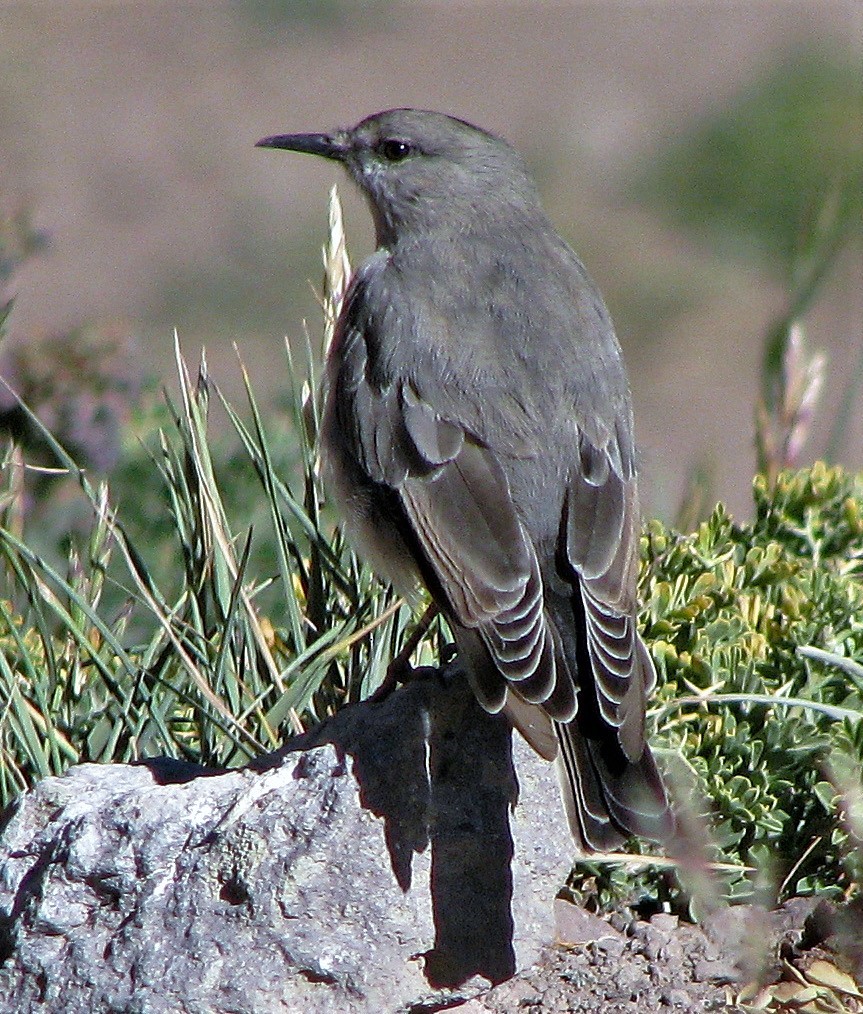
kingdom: Animalia
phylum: Chordata
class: Aves
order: Passeriformes
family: Tyrannidae
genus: Muscisaxicola
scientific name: Muscisaxicola frontalis
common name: Black-fronted ground tyrant
